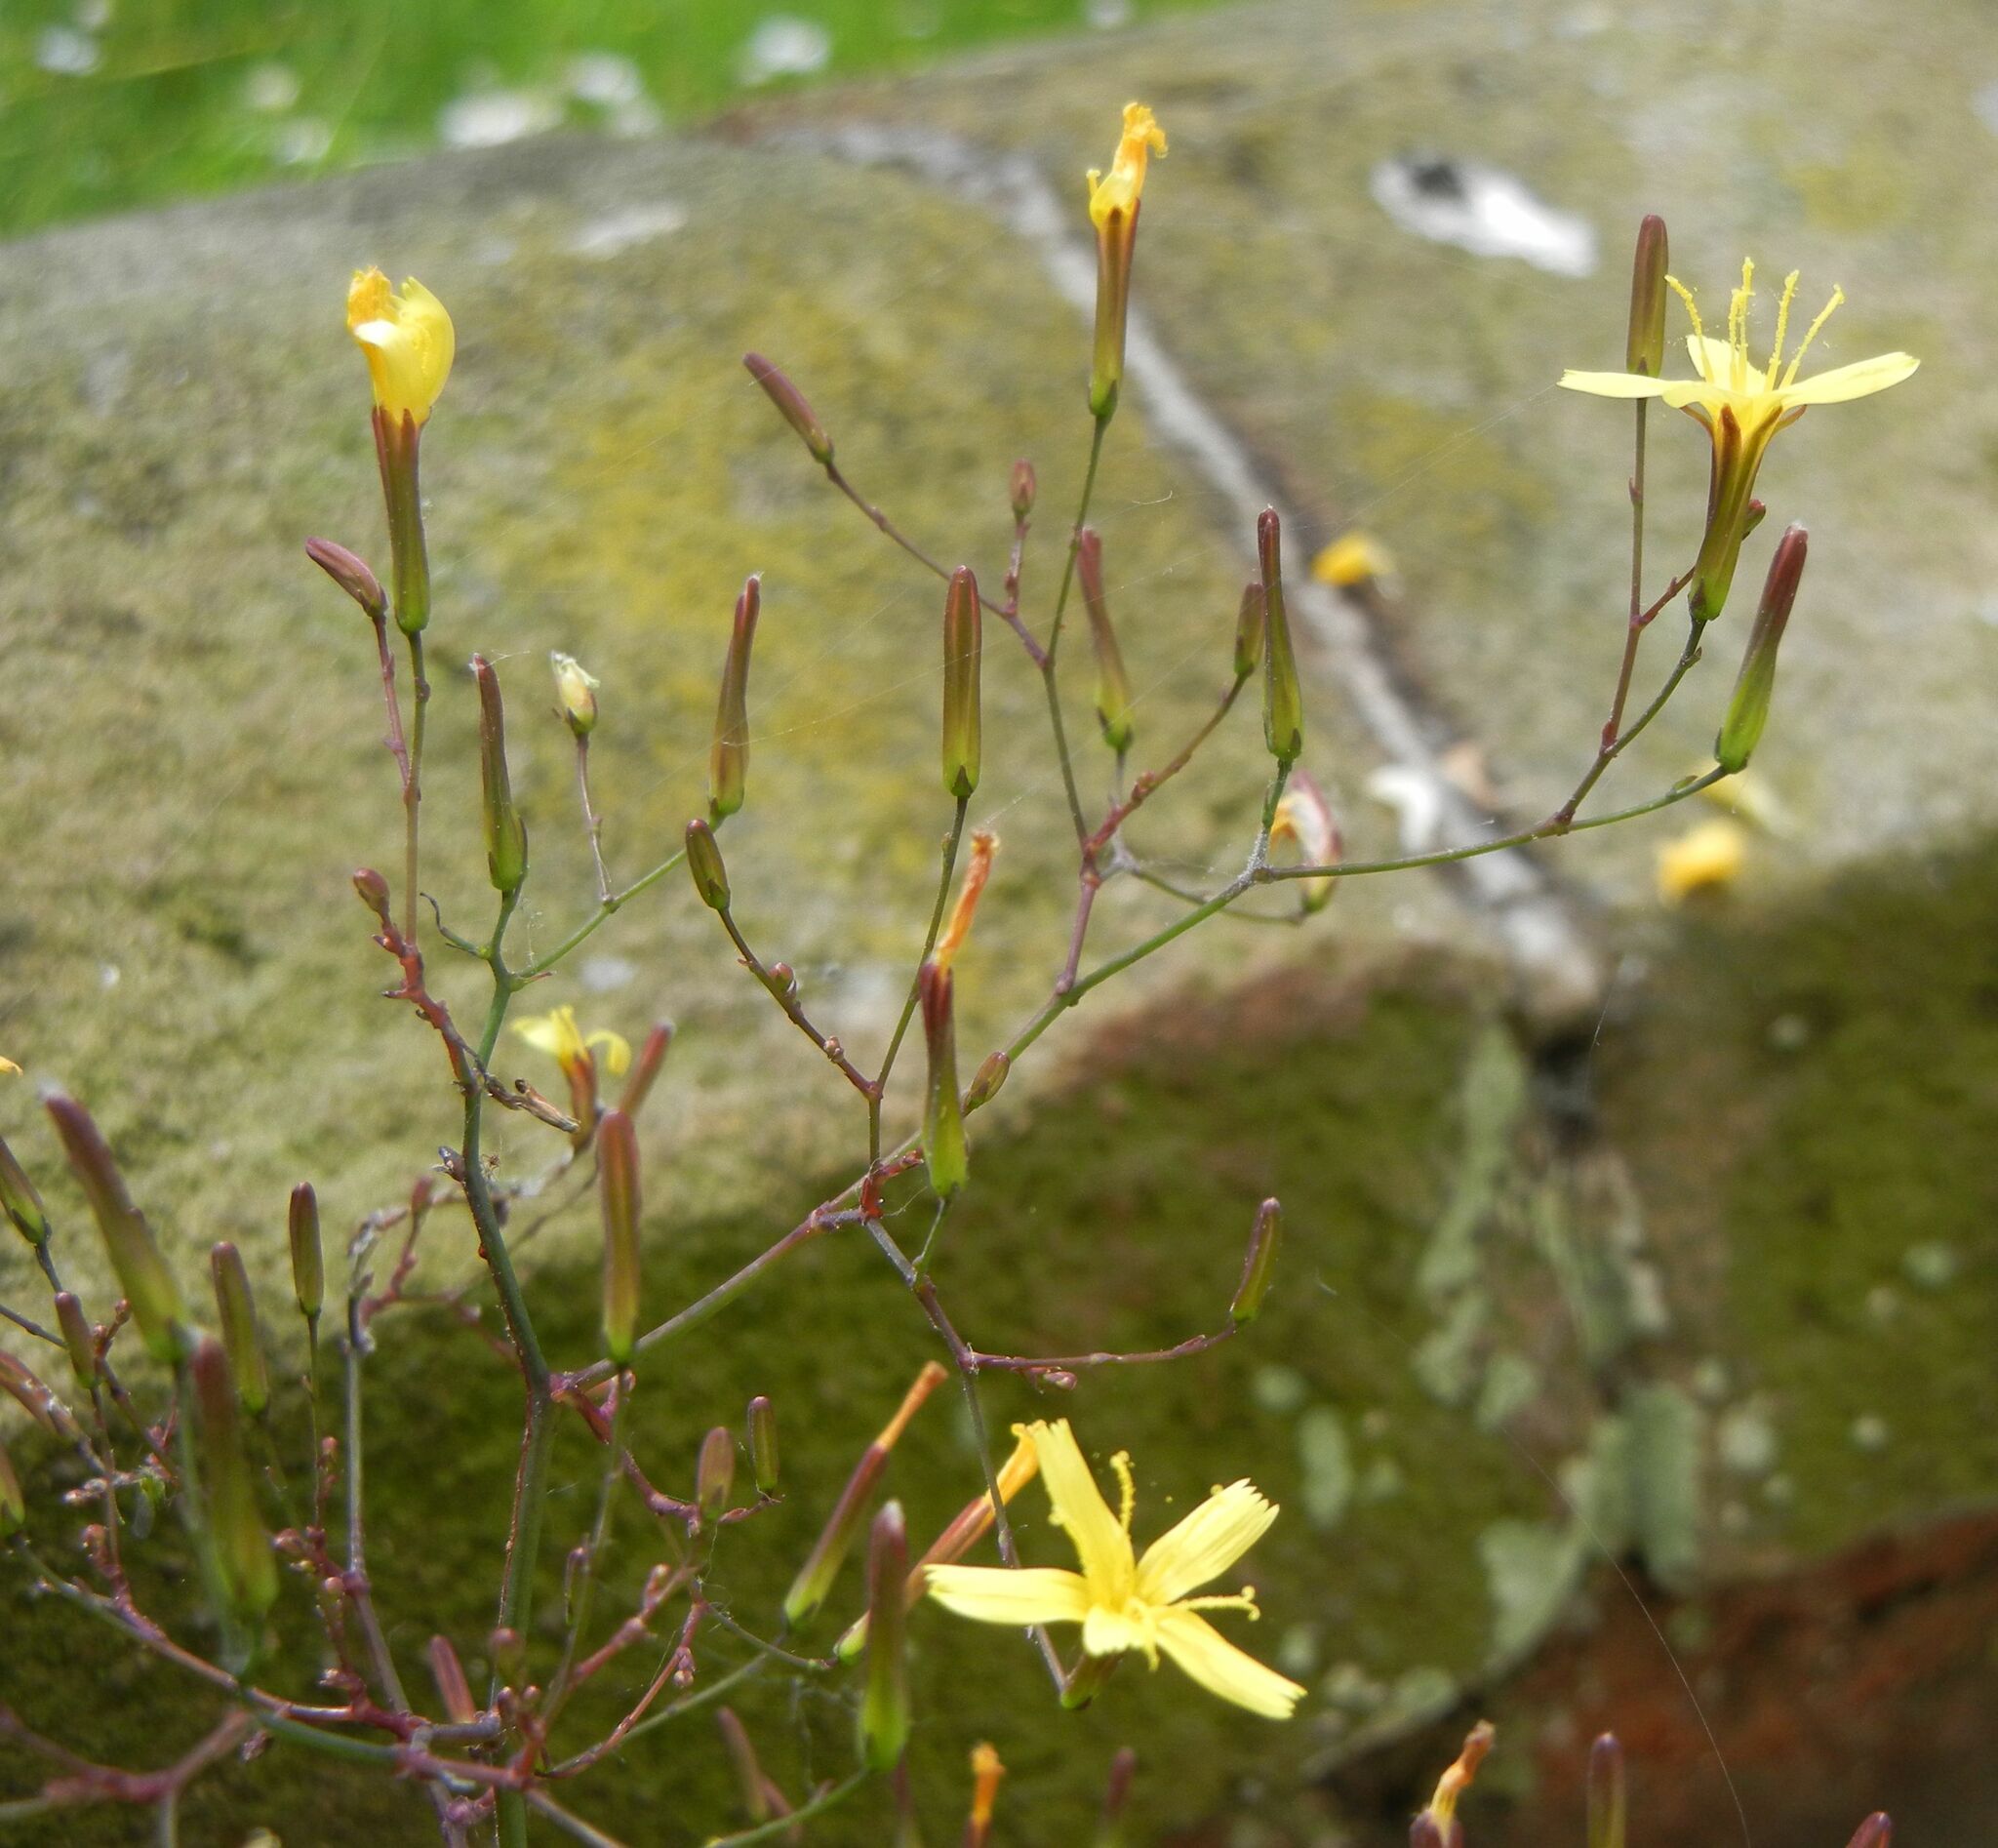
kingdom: Plantae
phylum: Tracheophyta
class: Magnoliopsida
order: Asterales
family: Asteraceae
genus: Mycelis
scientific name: Mycelis muralis
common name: Wall lettuce
